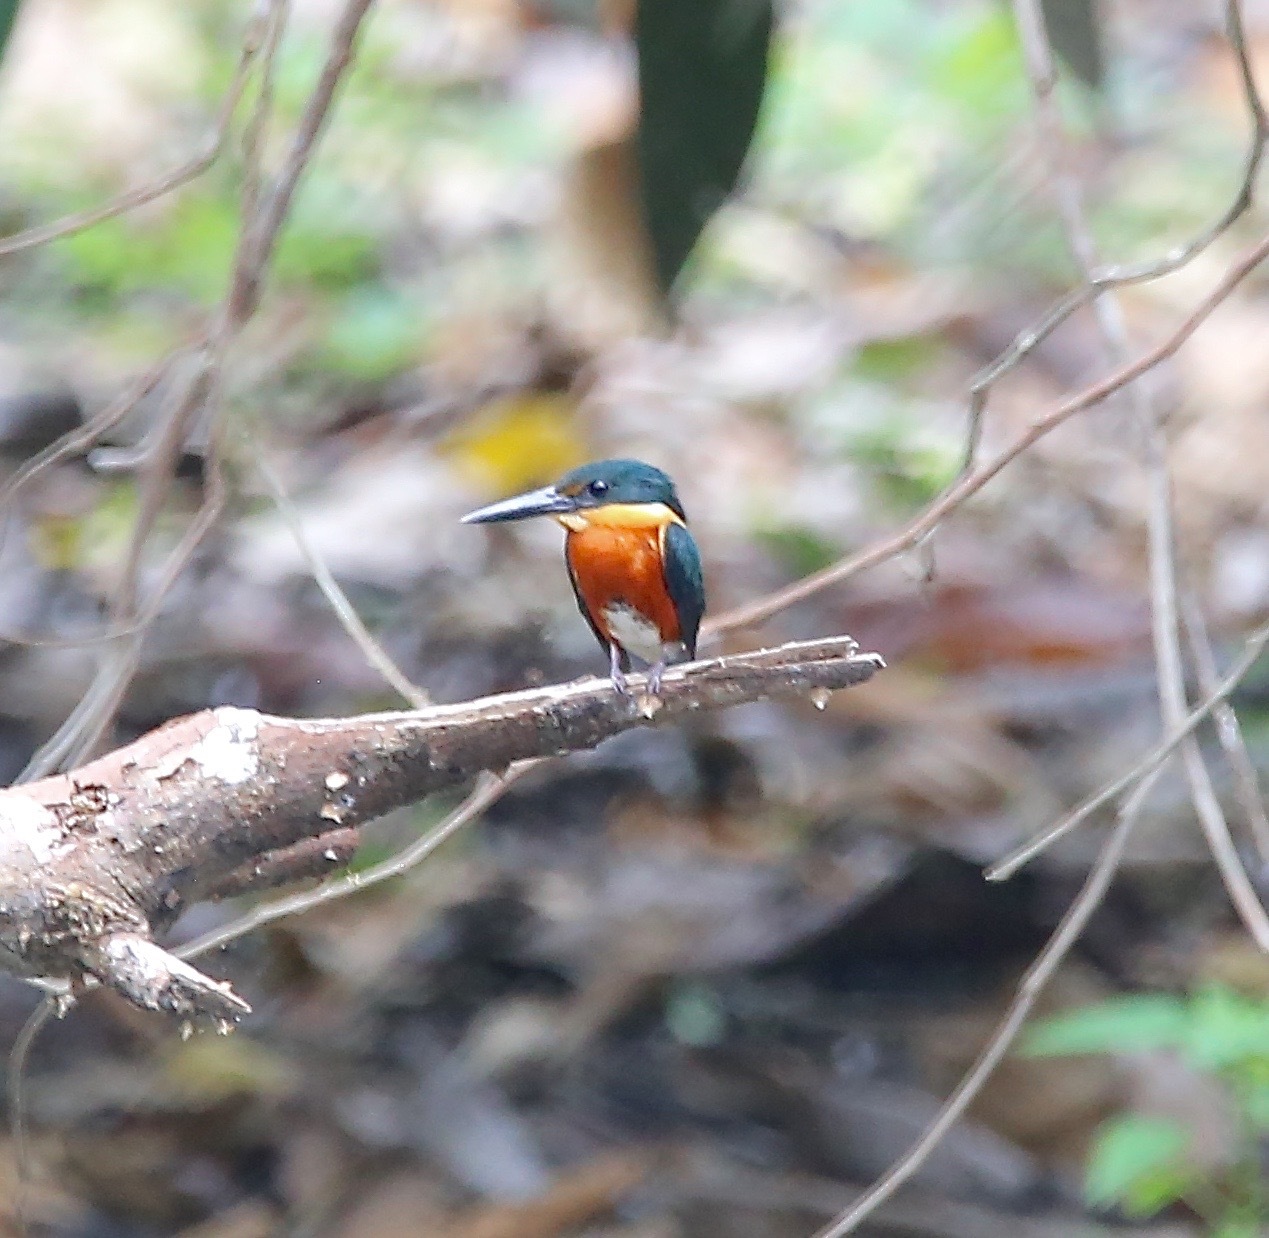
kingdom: Animalia
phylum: Chordata
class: Aves
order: Coraciiformes
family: Alcedinidae
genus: Chloroceryle
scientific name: Chloroceryle aenea
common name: American pygmy kingfisher
